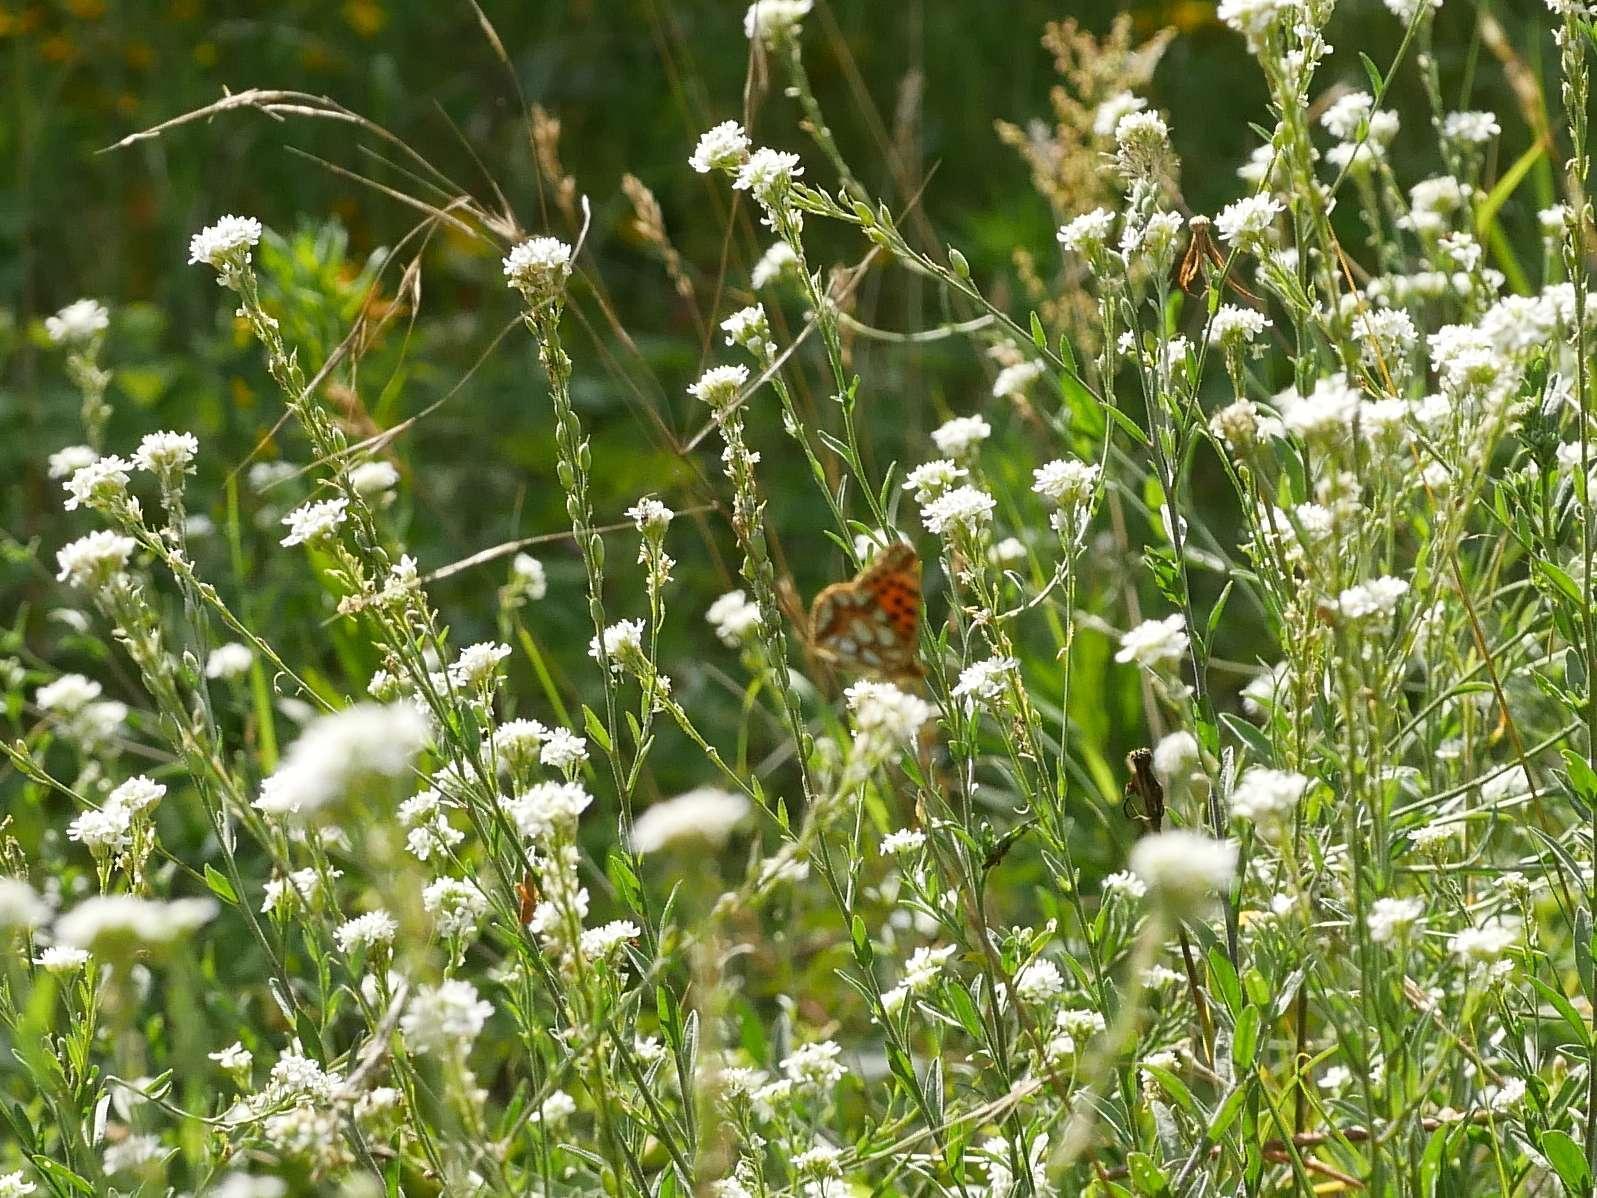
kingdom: Plantae
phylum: Tracheophyta
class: Magnoliopsida
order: Brassicales
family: Brassicaceae
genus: Berteroa
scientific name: Berteroa incana
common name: Hoary alison
